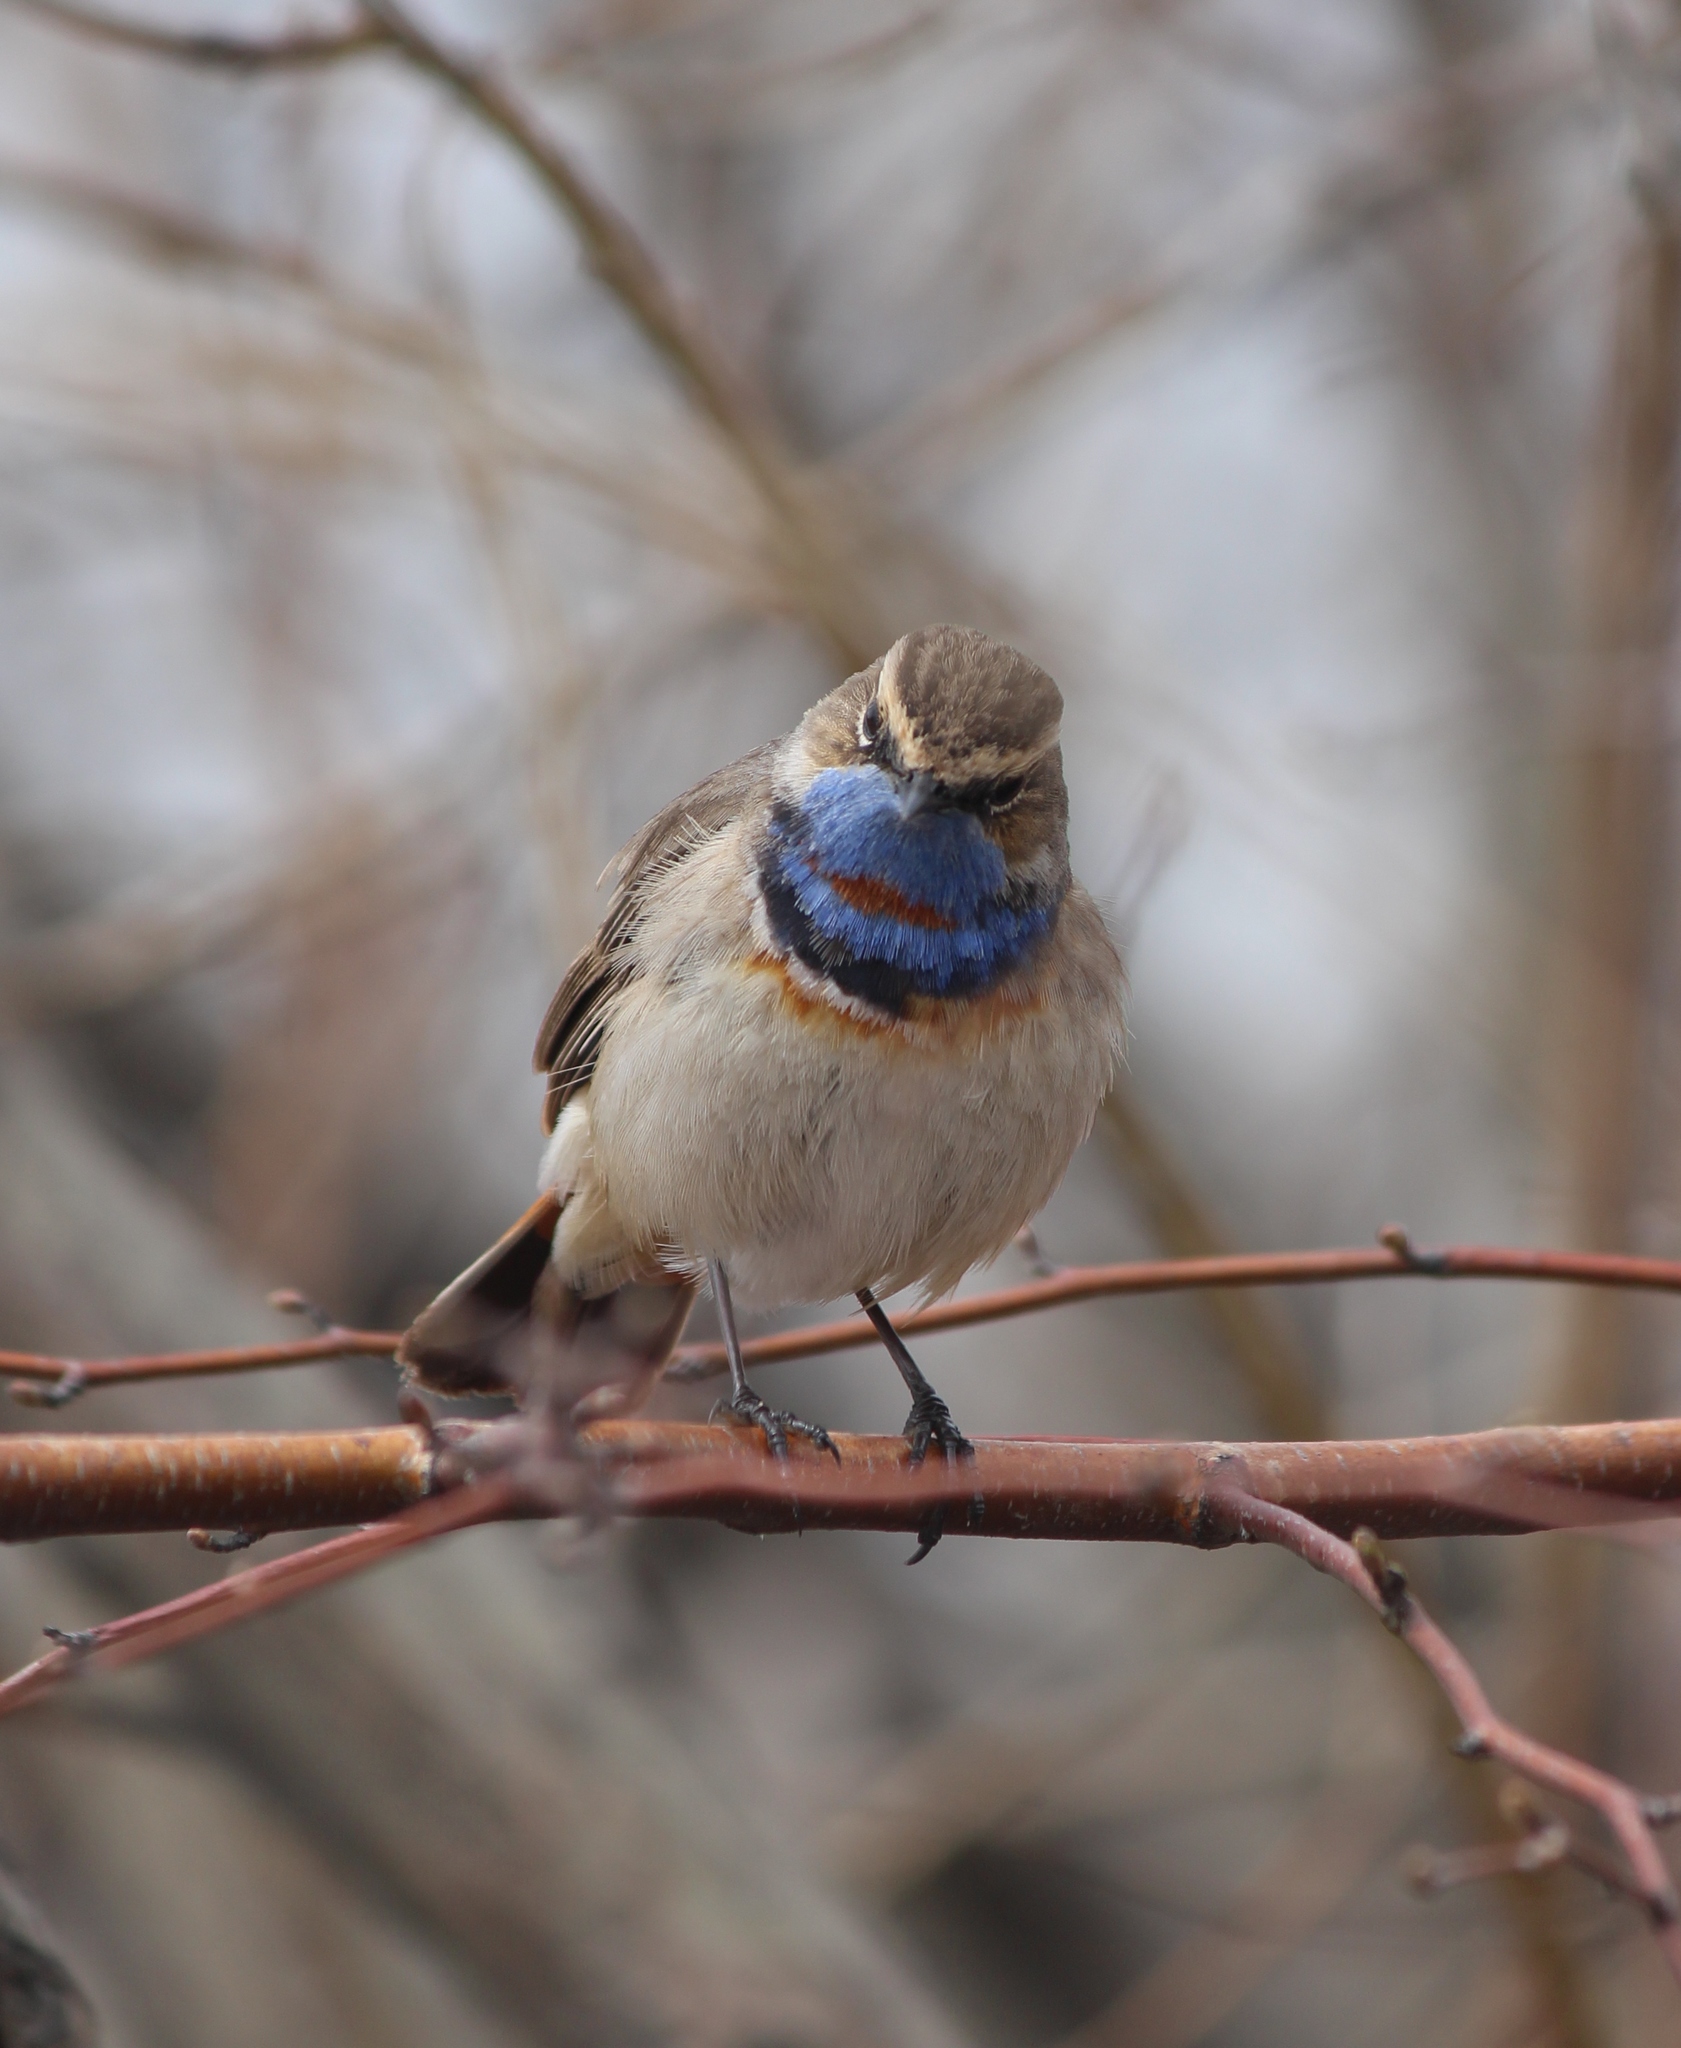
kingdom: Animalia
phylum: Chordata
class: Aves
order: Passeriformes
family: Muscicapidae
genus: Luscinia
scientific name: Luscinia svecica
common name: Bluethroat
